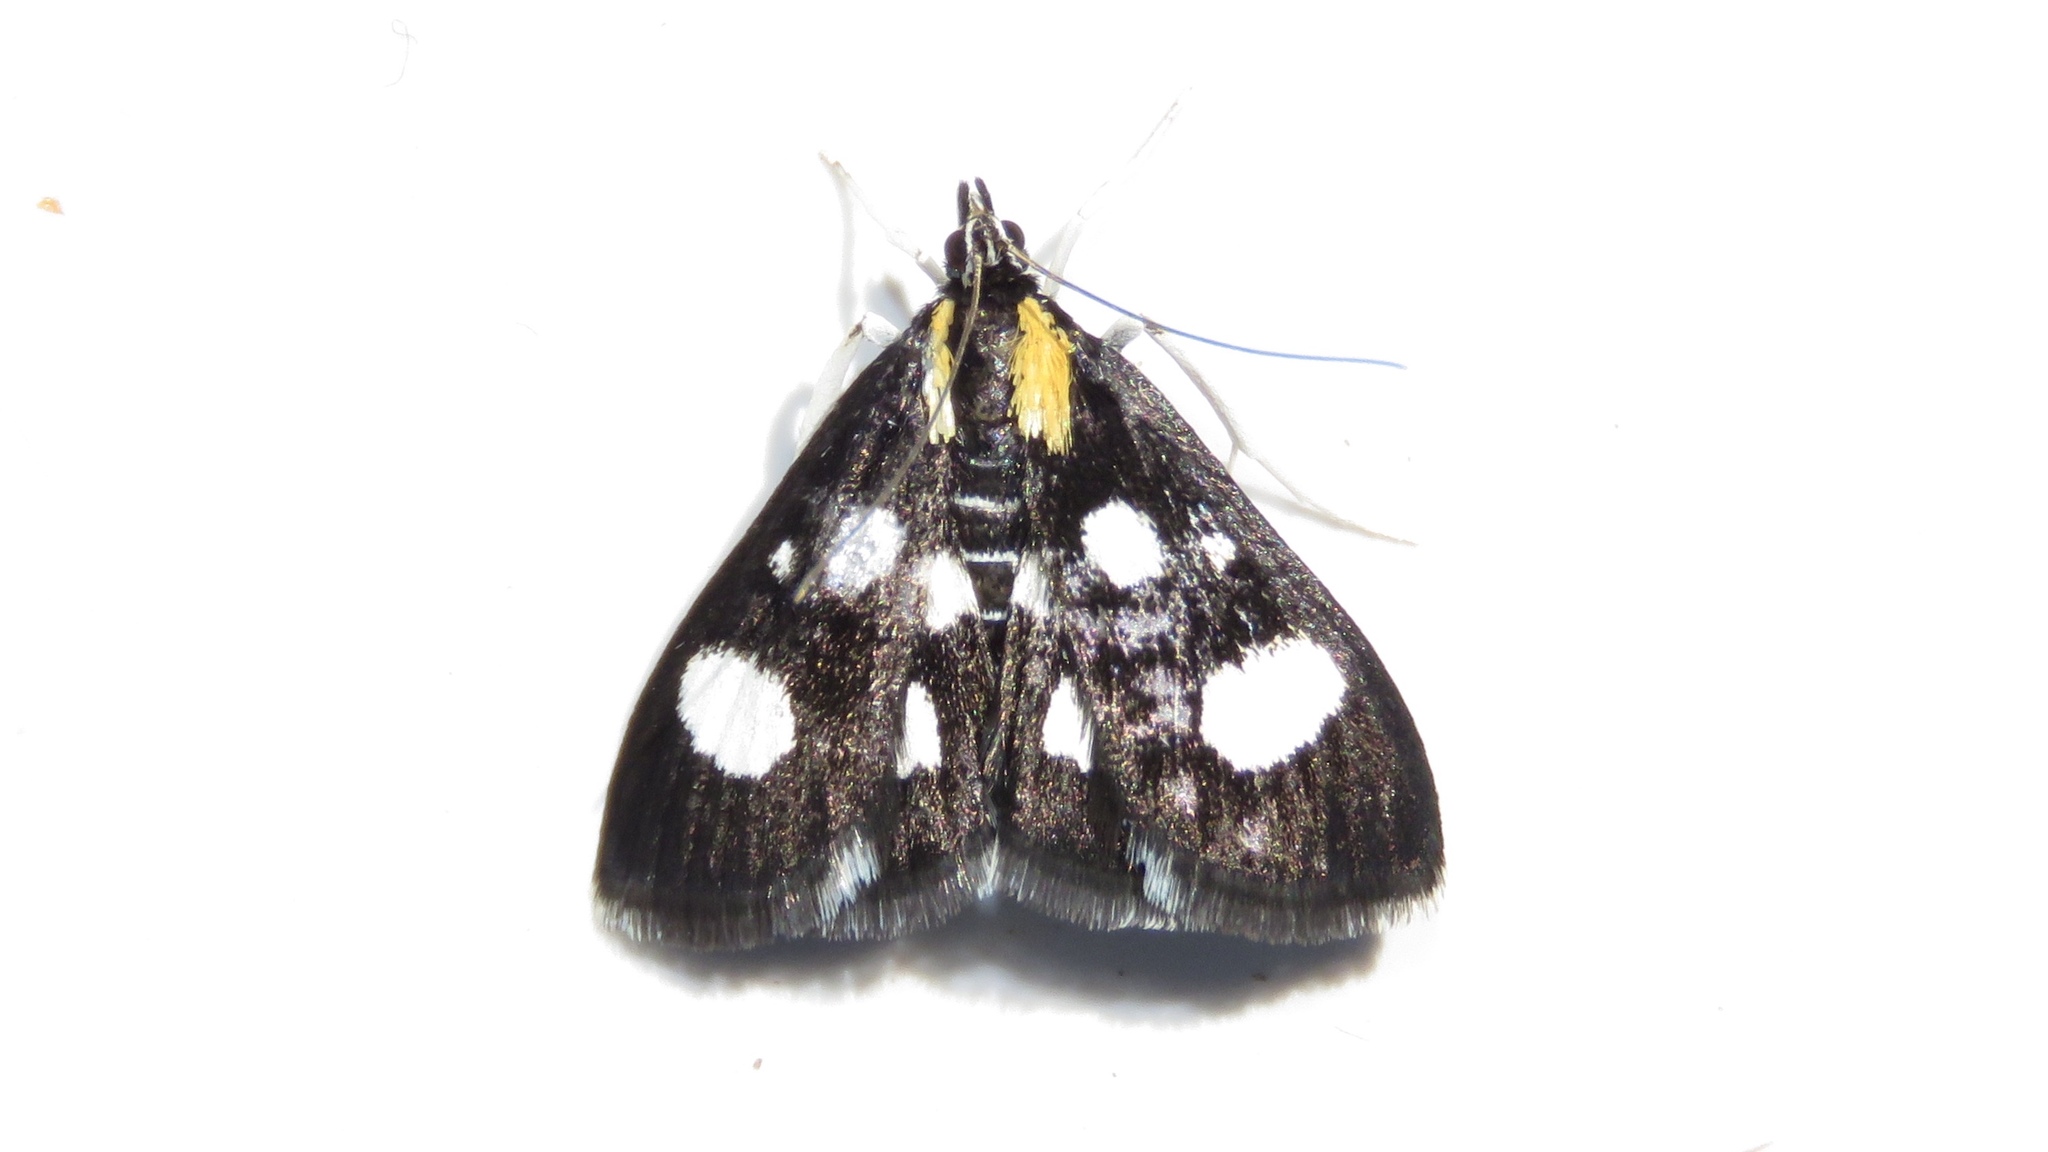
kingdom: Animalia
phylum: Arthropoda
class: Insecta
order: Lepidoptera
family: Crambidae
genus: Anania
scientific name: Anania funebris
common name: White-spotted sable moth
